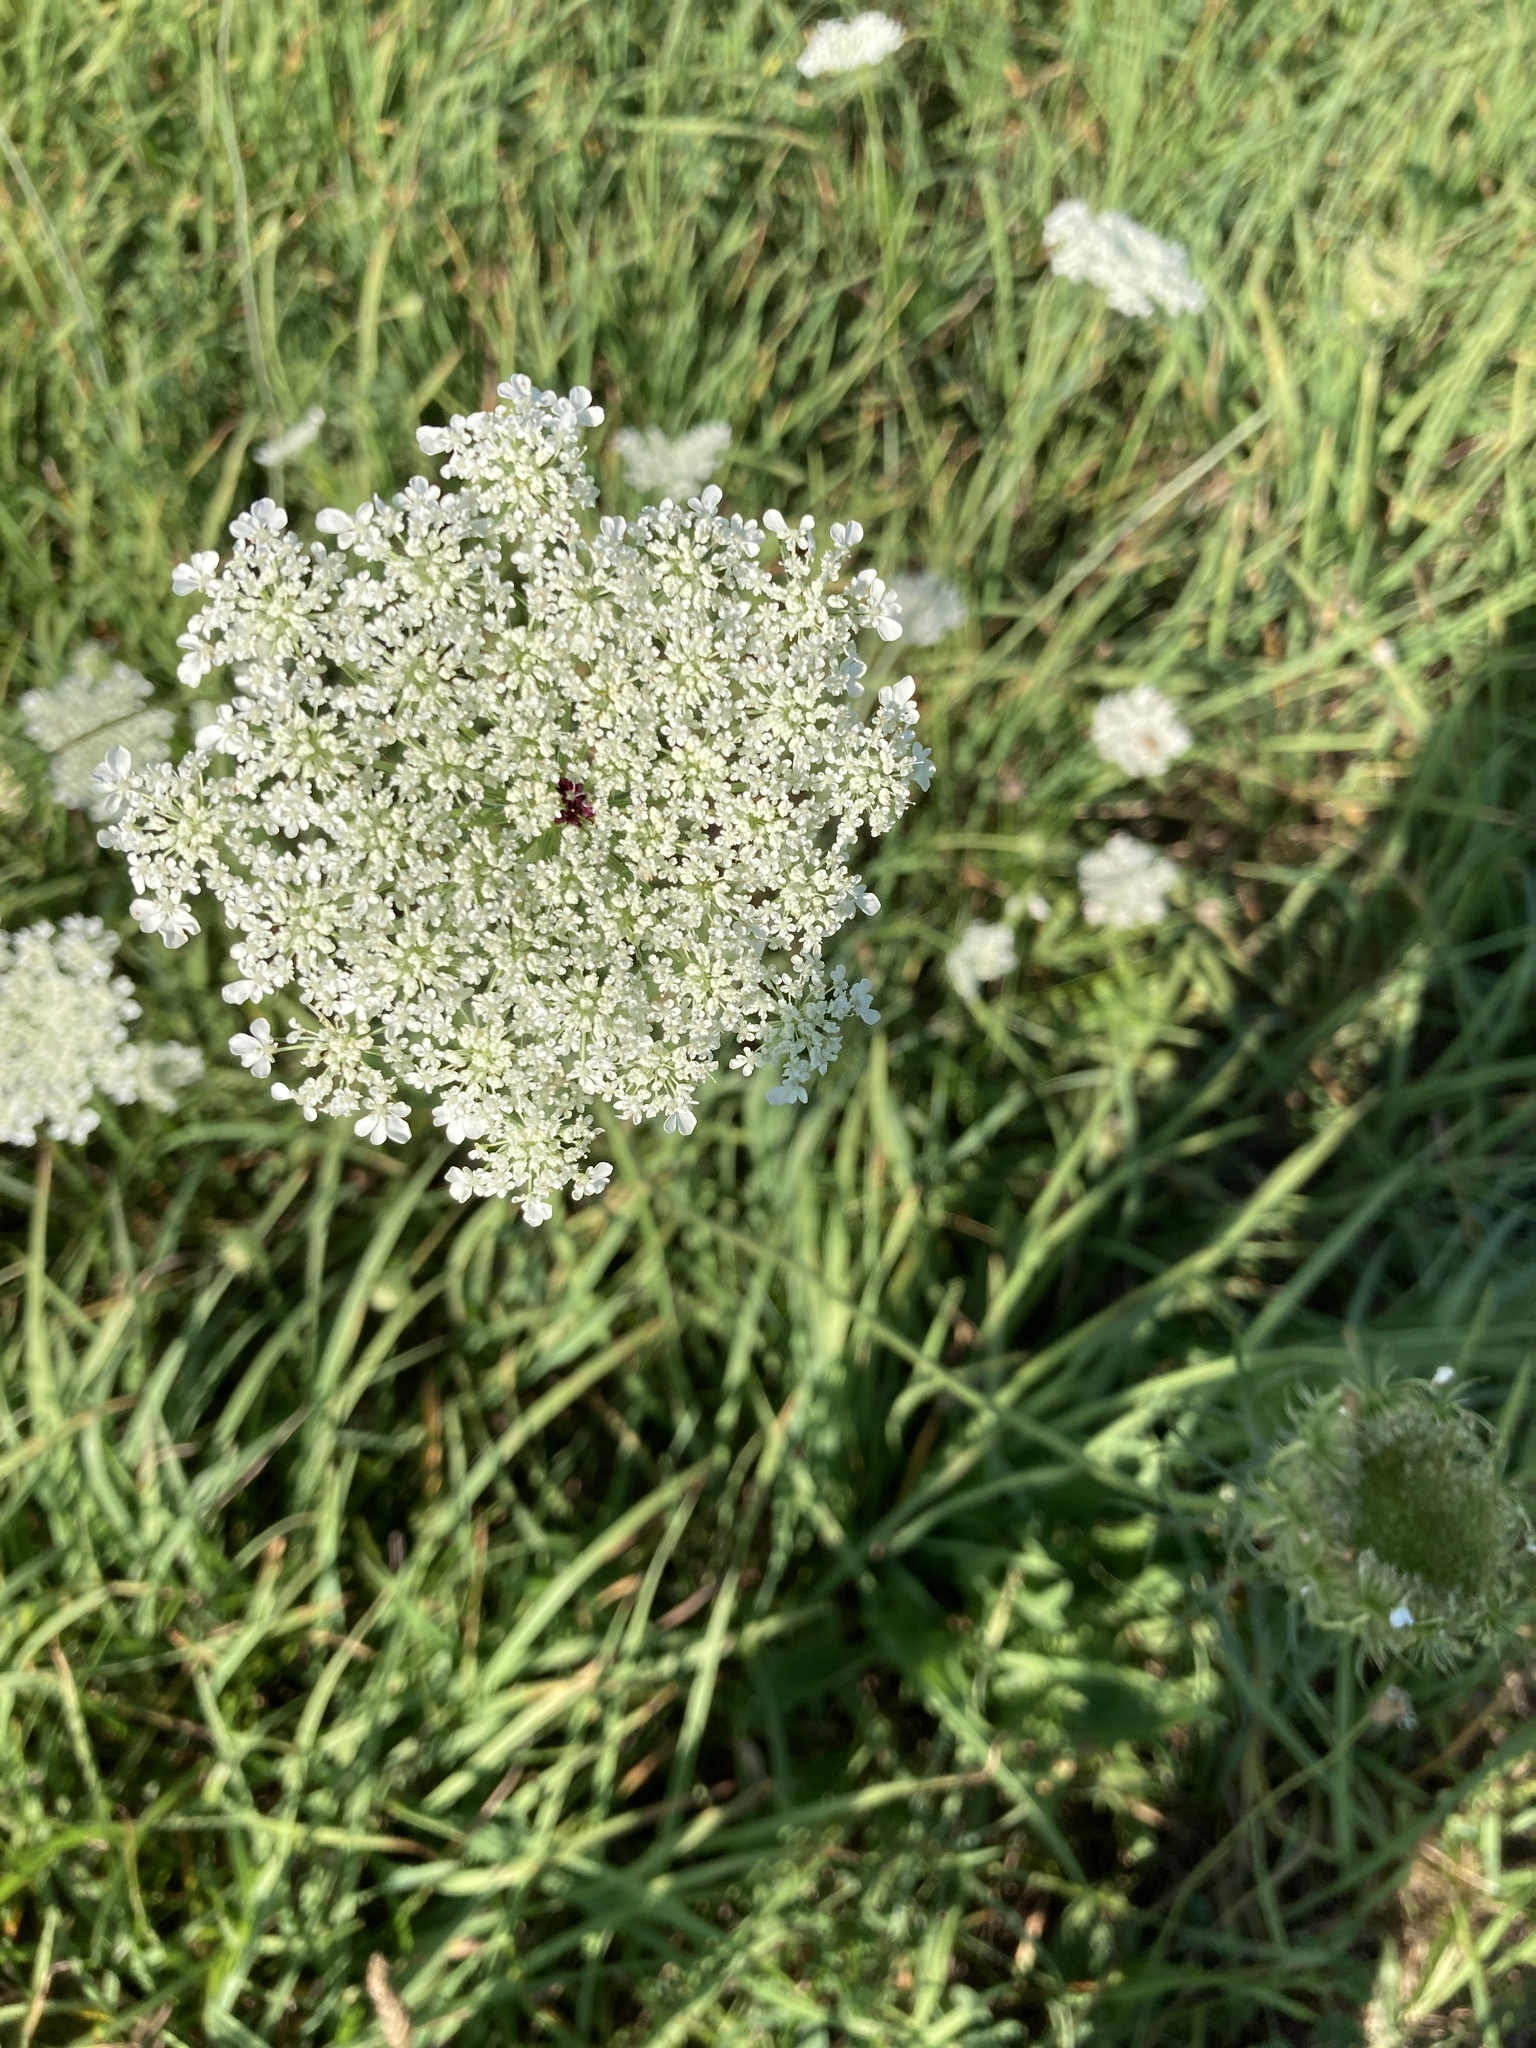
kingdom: Plantae
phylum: Tracheophyta
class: Magnoliopsida
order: Apiales
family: Apiaceae
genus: Daucus
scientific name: Daucus carota
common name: Wild carrot
